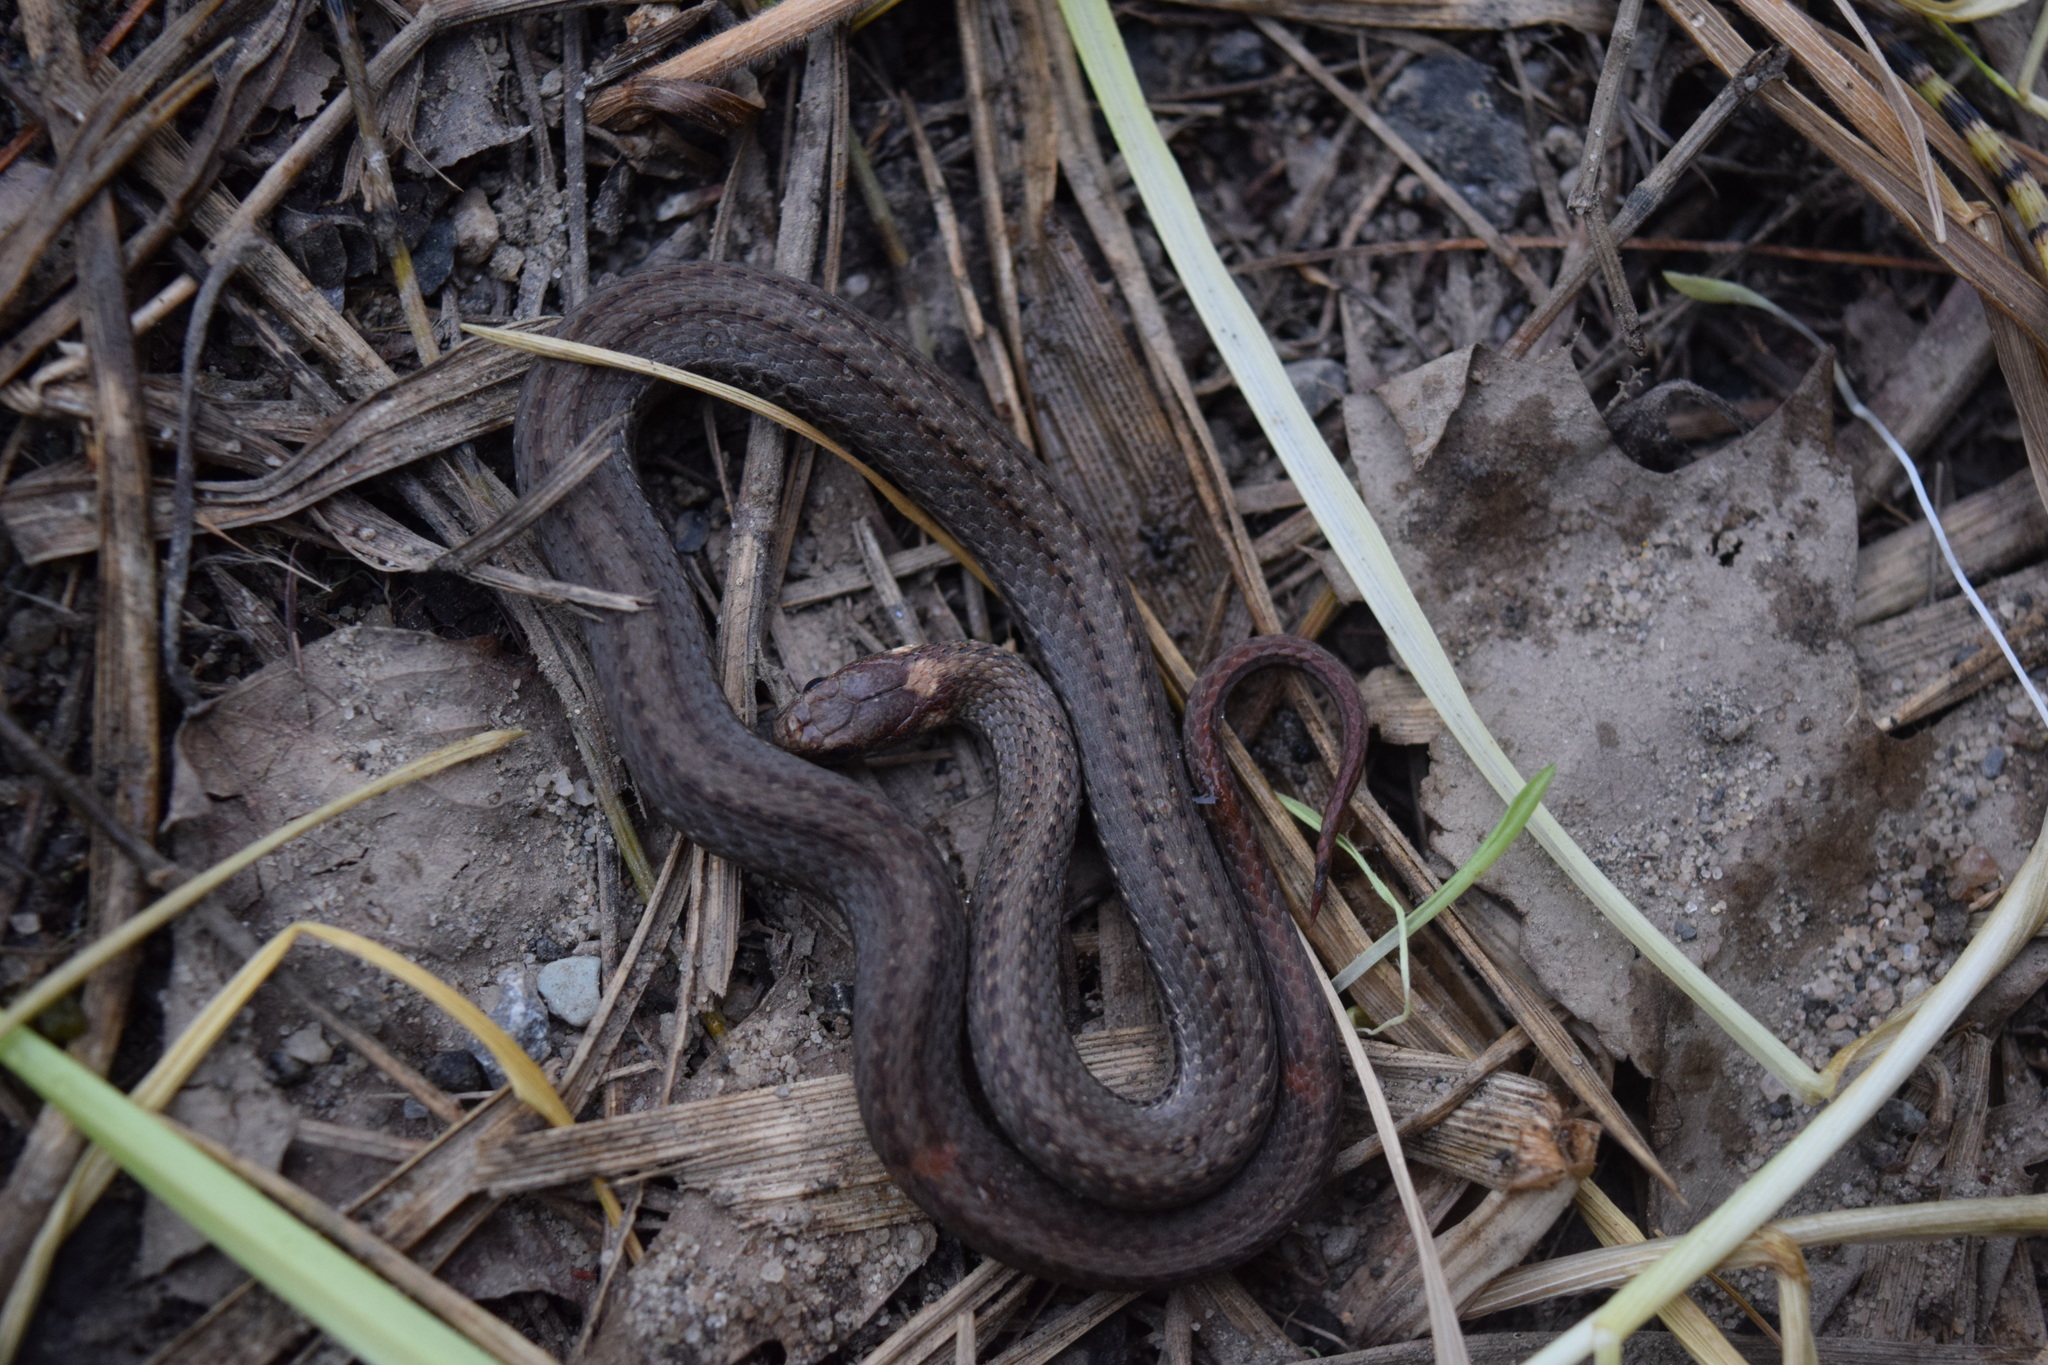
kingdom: Animalia
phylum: Chordata
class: Squamata
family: Colubridae
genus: Storeria
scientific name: Storeria occipitomaculata
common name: Redbelly snake
